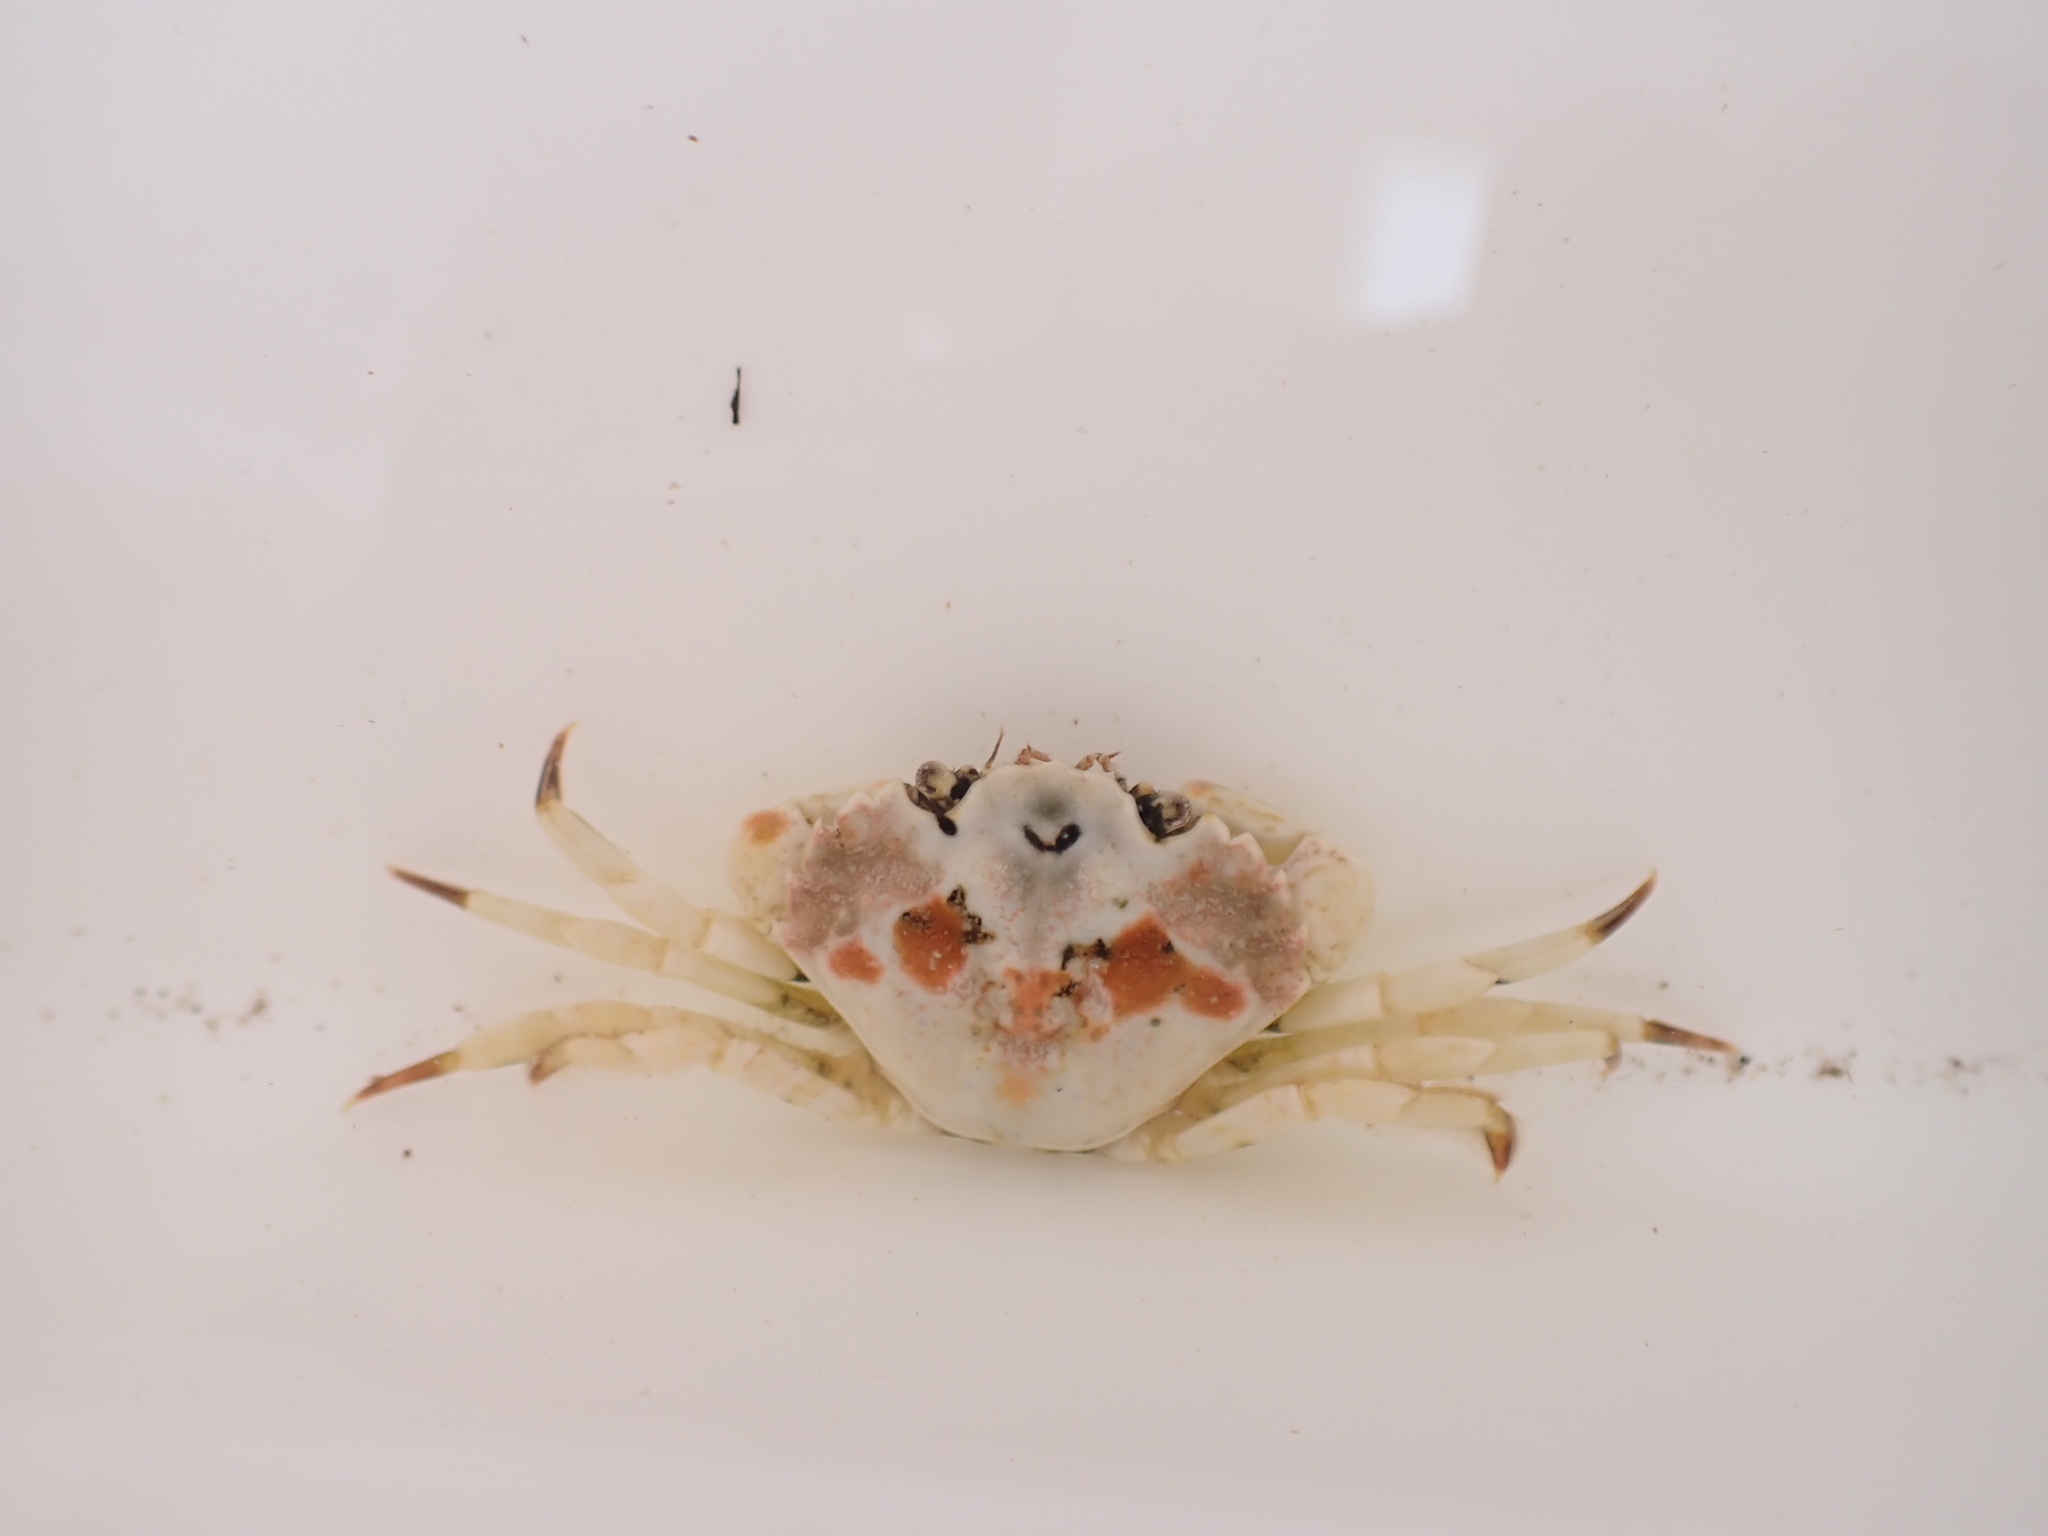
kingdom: Animalia
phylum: Arthropoda
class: Malacostraca
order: Decapoda
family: Carcinidae
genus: Carcinus
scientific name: Carcinus maenas
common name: European green crab
